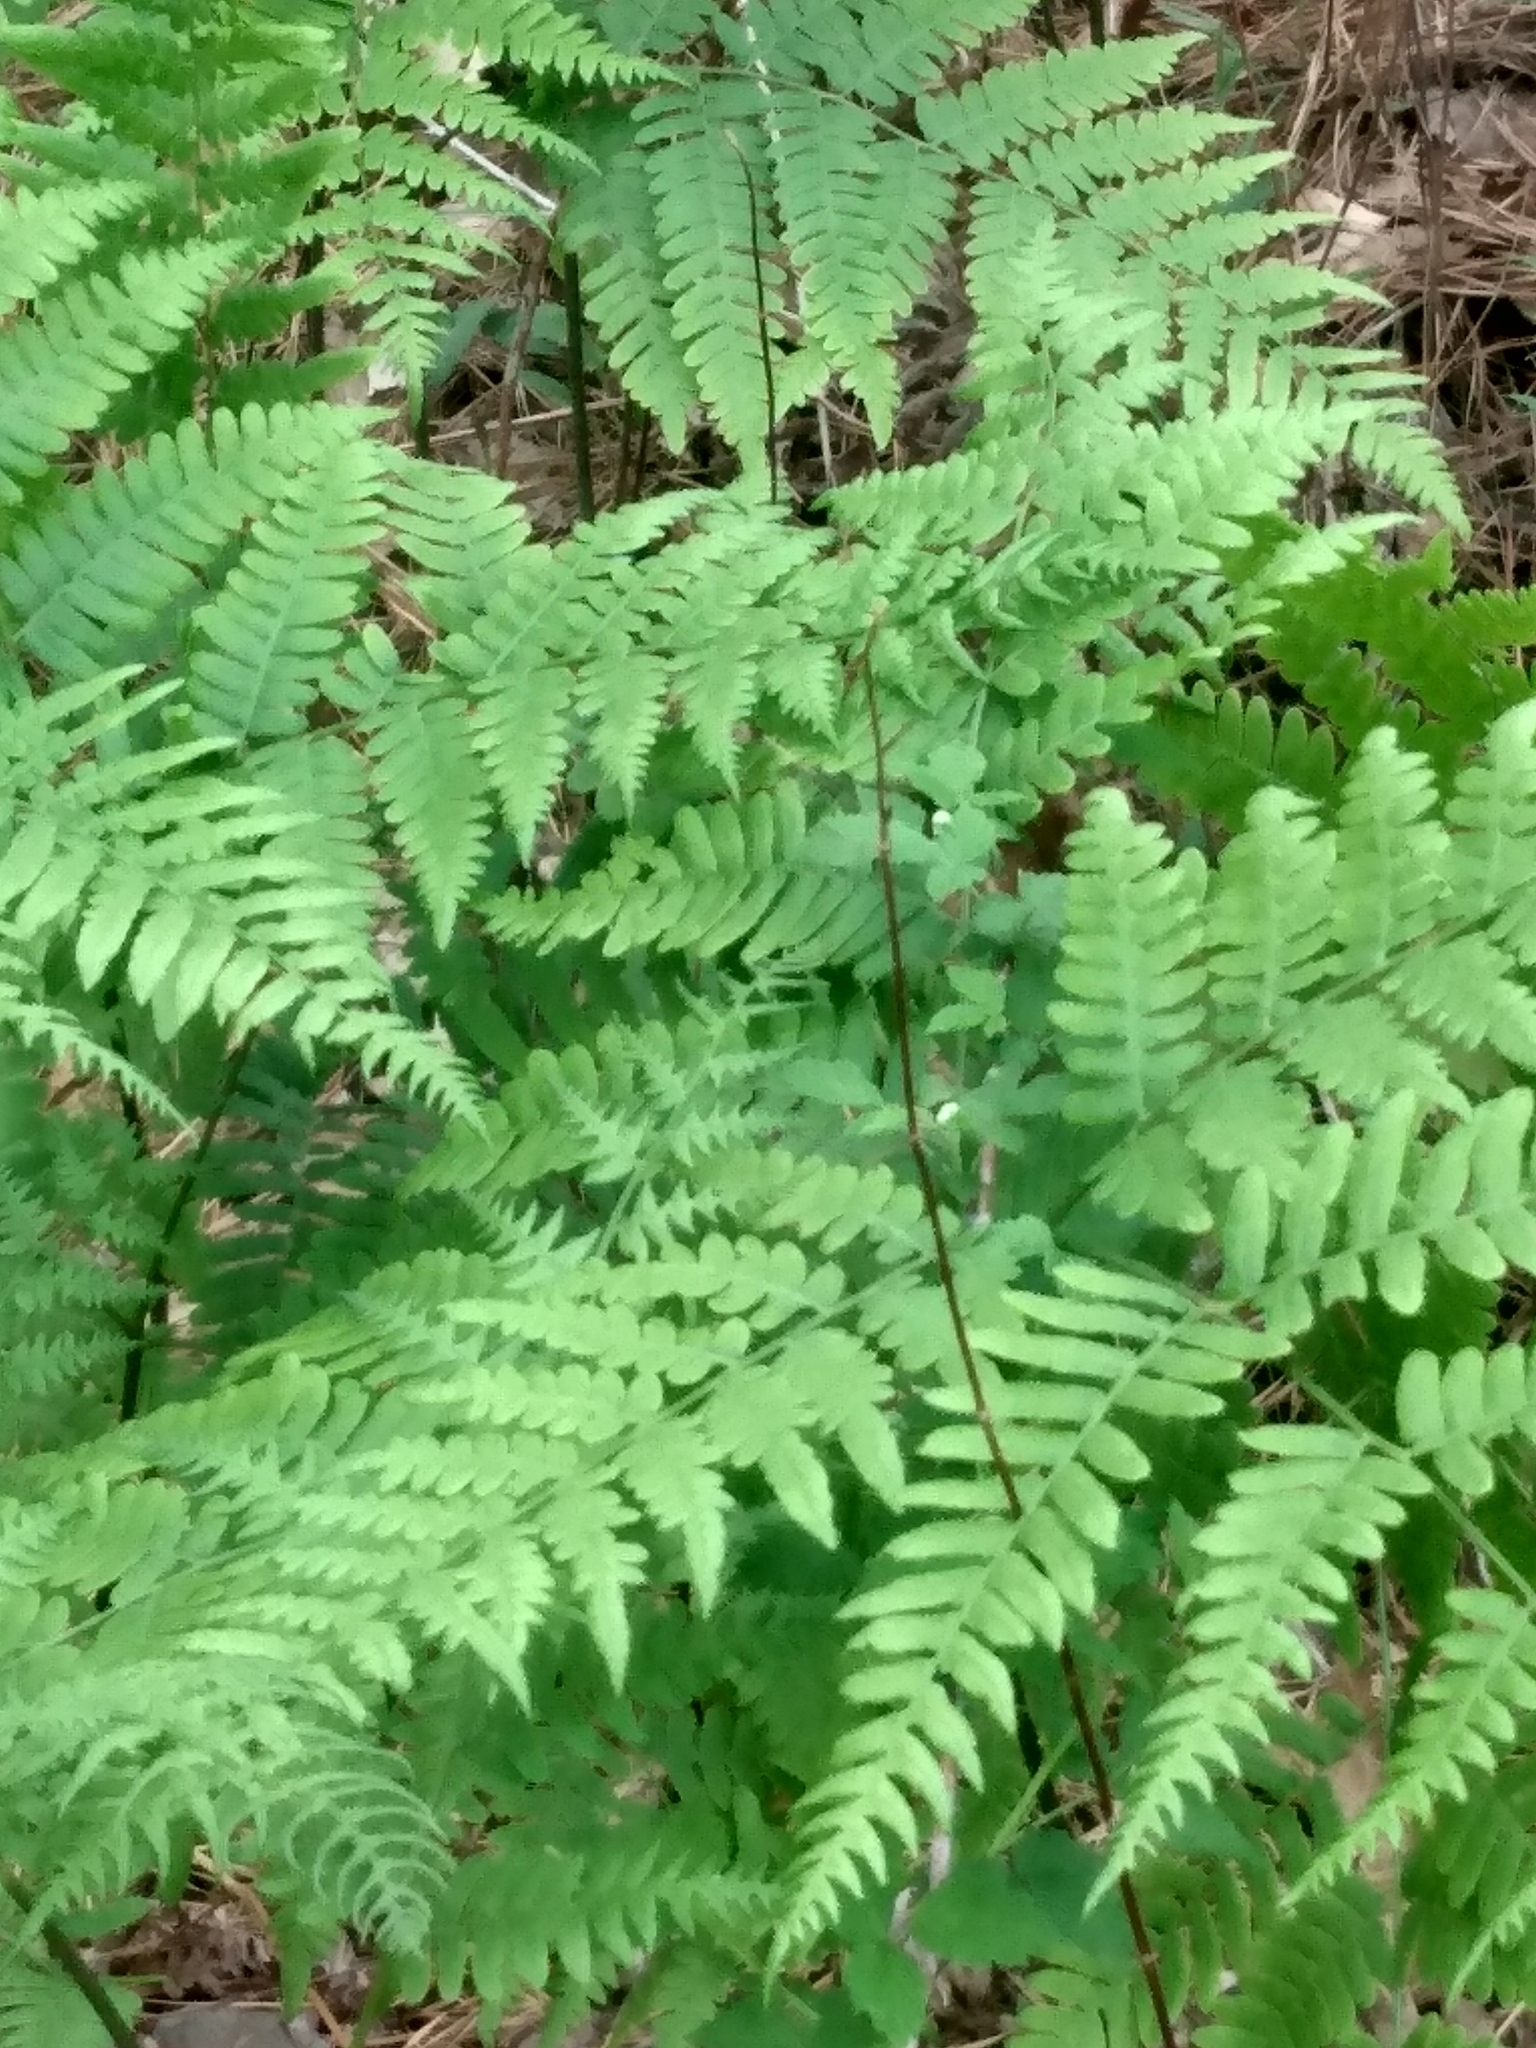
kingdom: Plantae
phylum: Tracheophyta
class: Polypodiopsida
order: Polypodiales
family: Dennstaedtiaceae
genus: Pteridium
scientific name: Pteridium aquilinum
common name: Bracken
